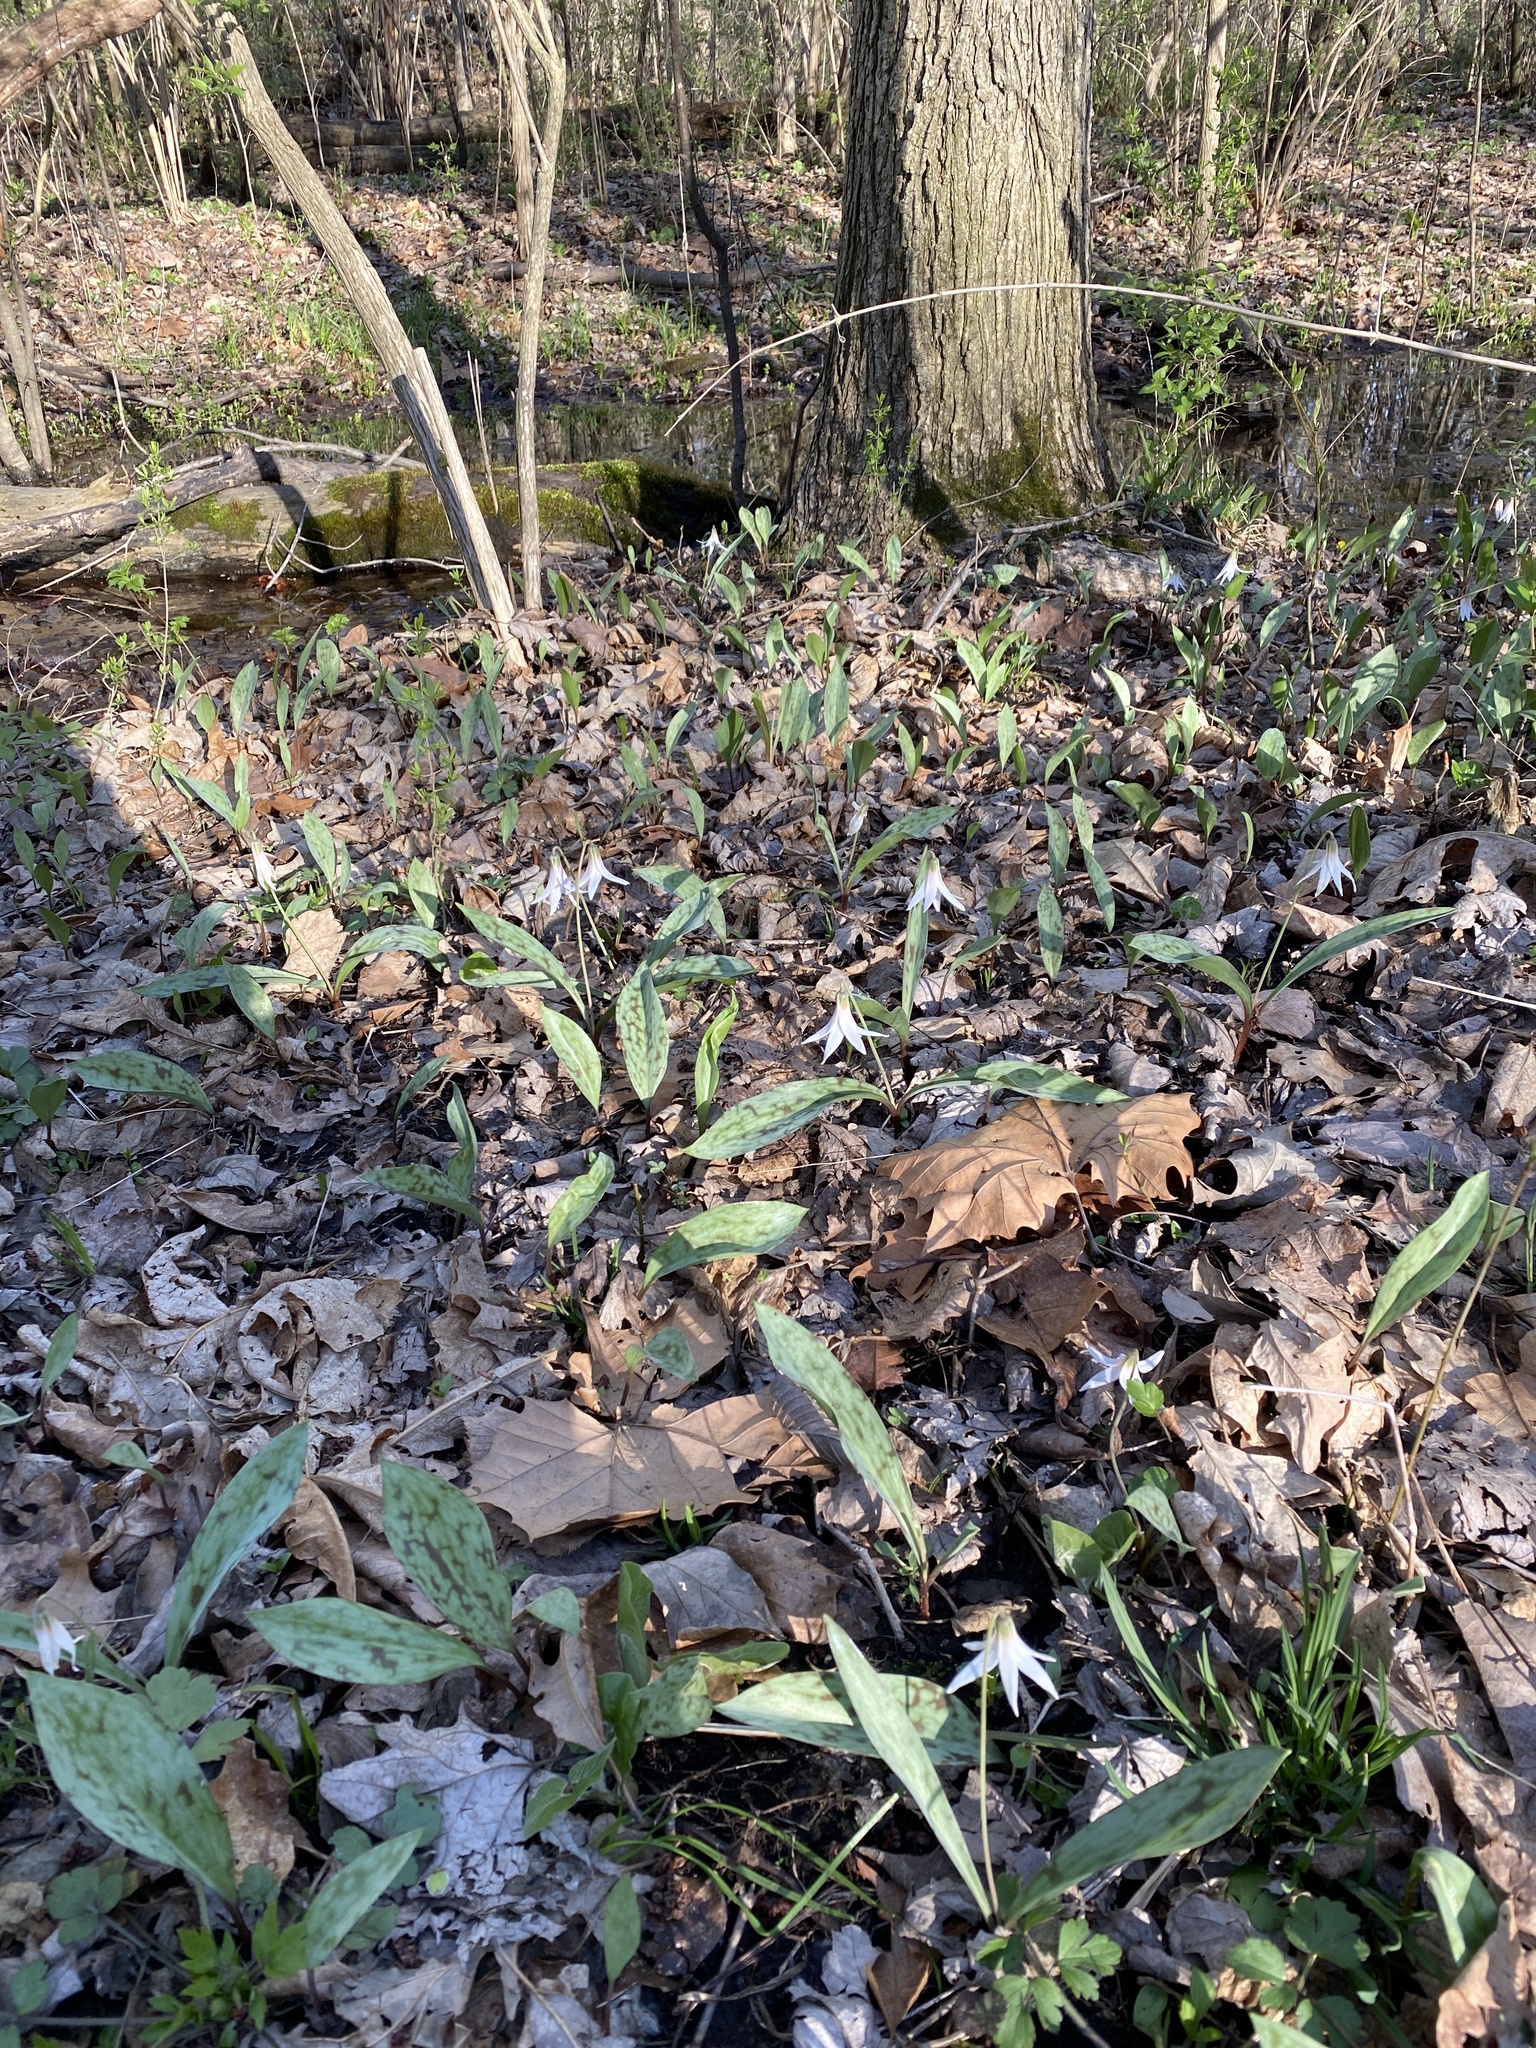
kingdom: Plantae
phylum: Tracheophyta
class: Liliopsida
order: Liliales
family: Liliaceae
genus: Erythronium
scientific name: Erythronium albidum
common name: White trout-lily
